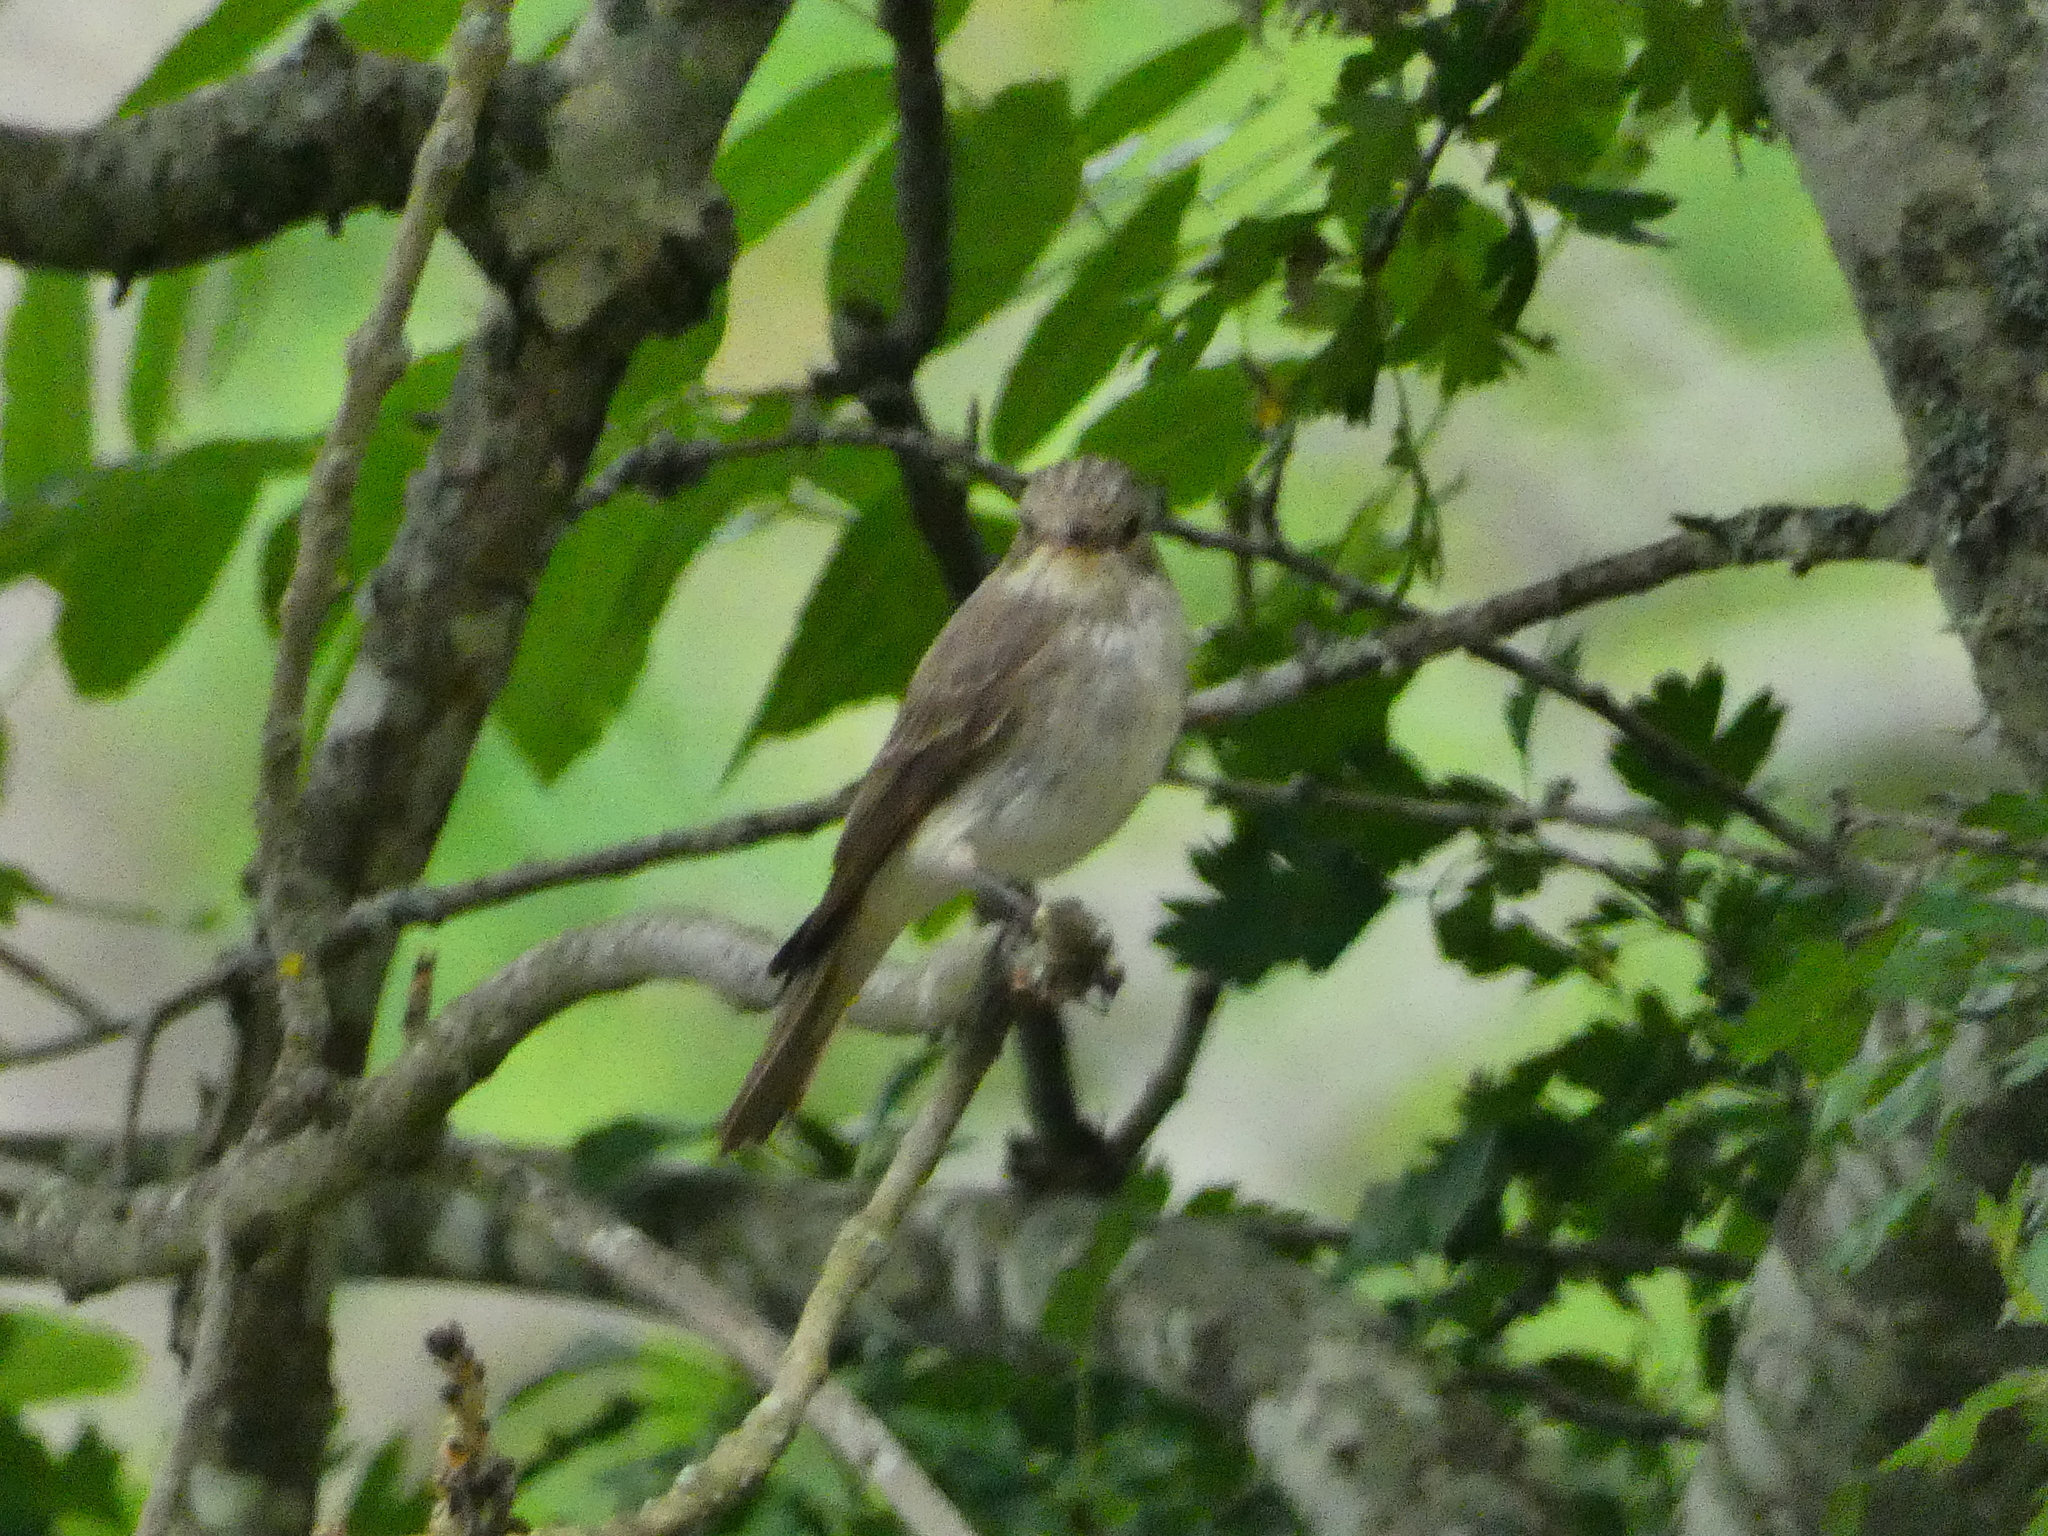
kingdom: Animalia
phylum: Chordata
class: Aves
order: Passeriformes
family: Muscicapidae
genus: Muscicapa
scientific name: Muscicapa striata
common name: Spotted flycatcher
